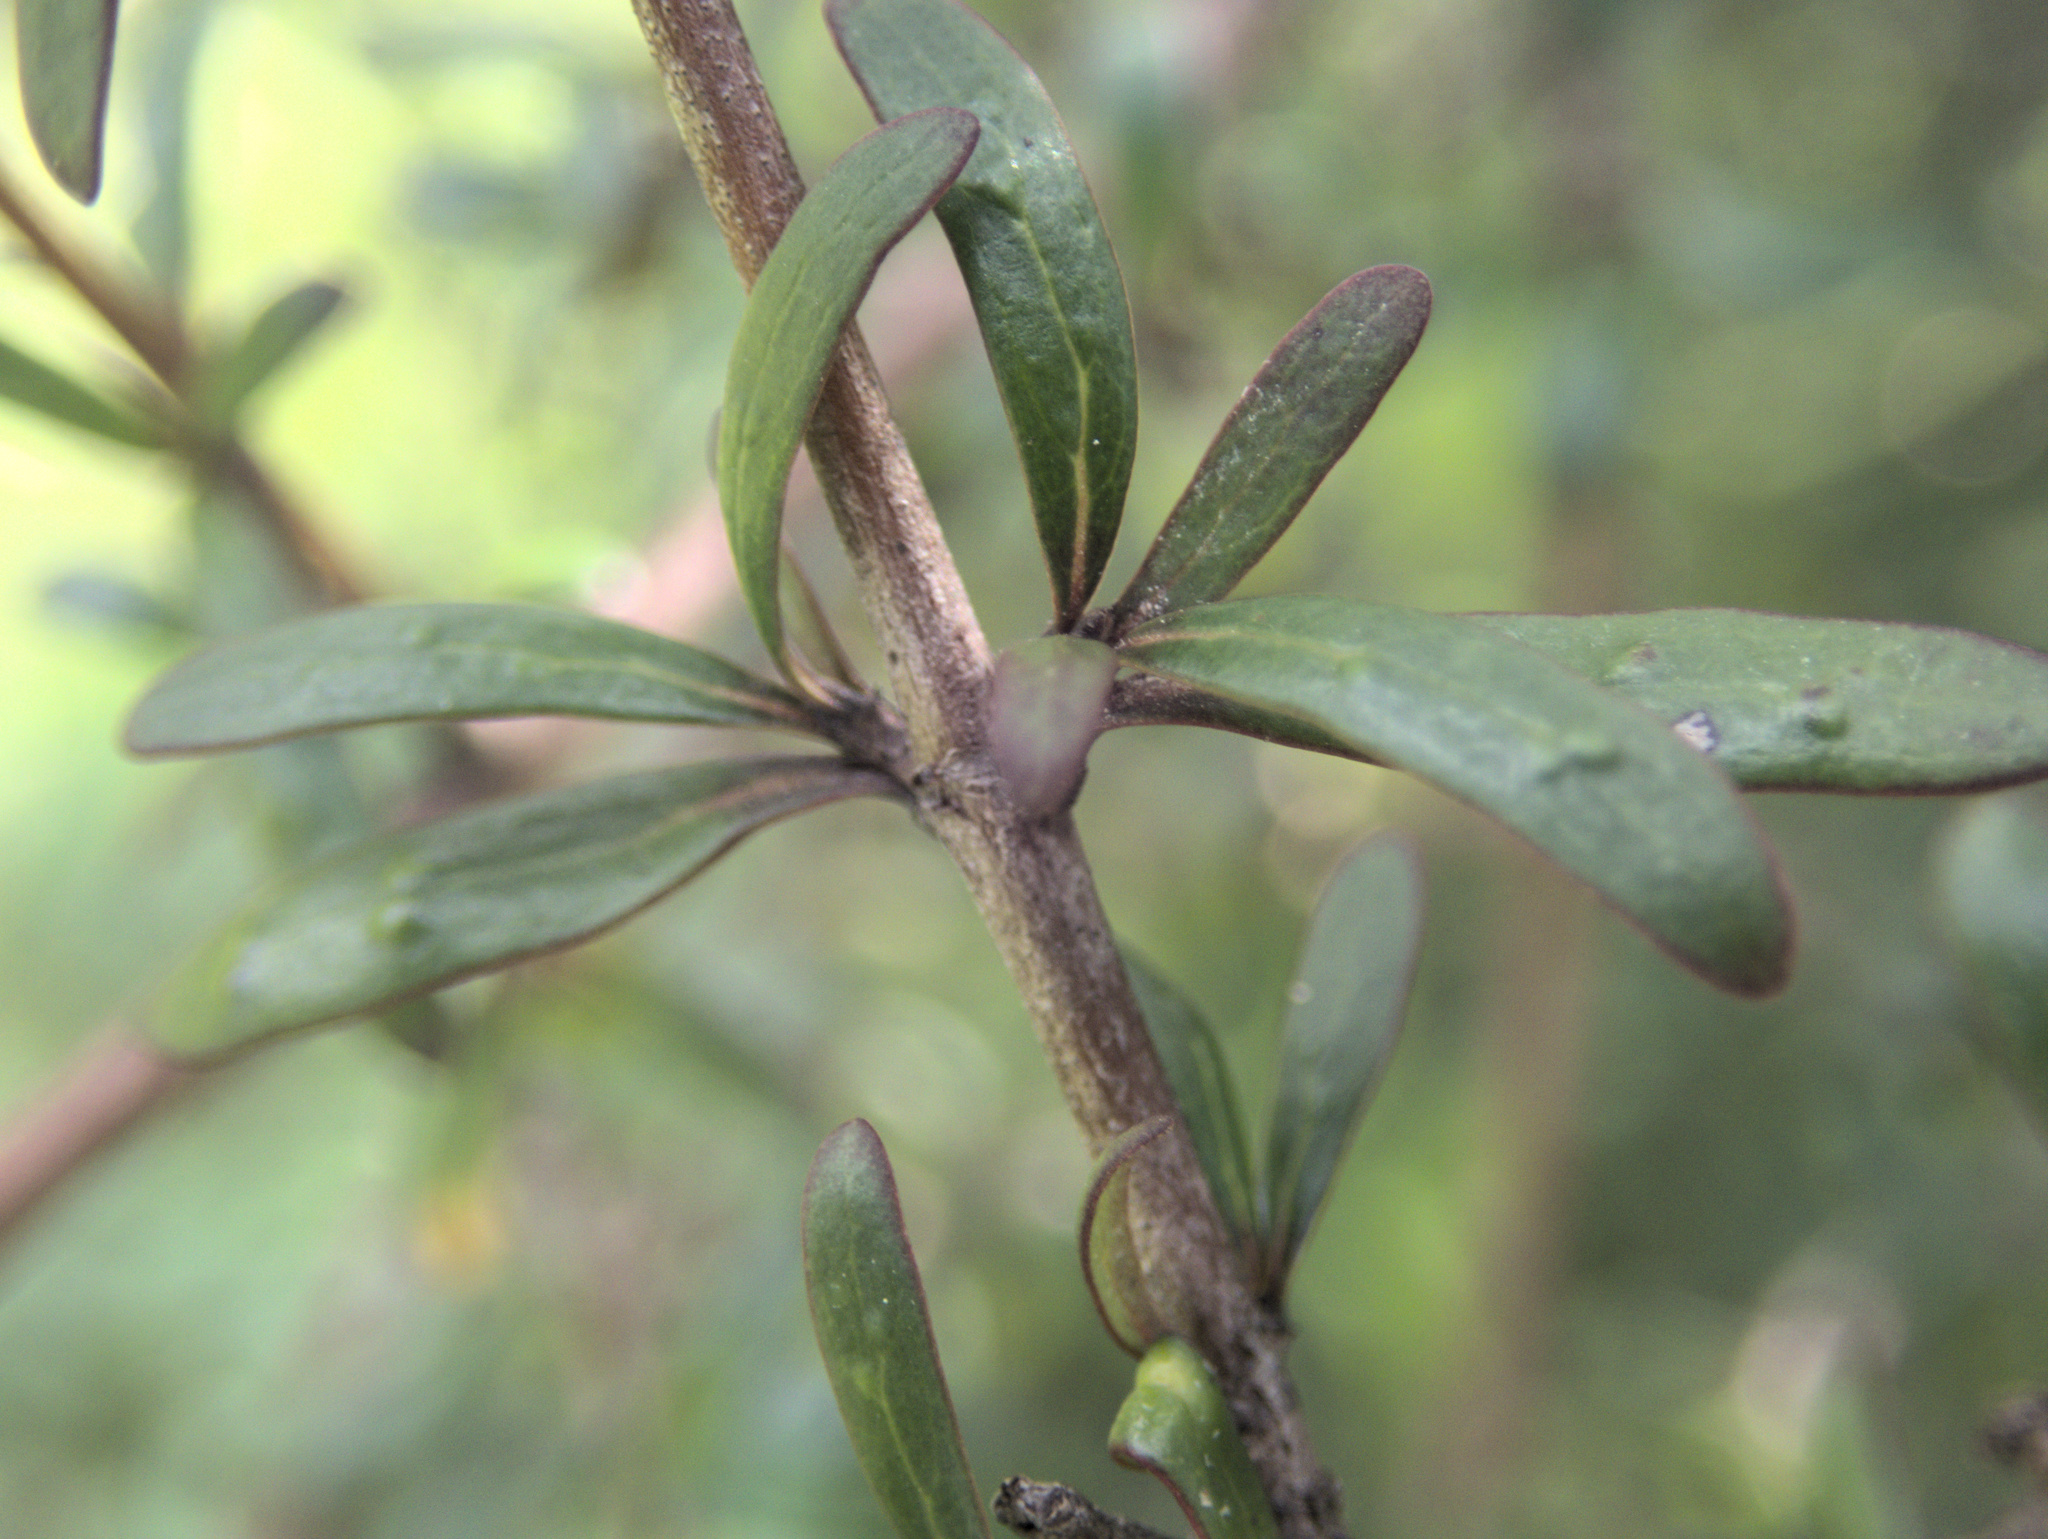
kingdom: Plantae
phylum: Tracheophyta
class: Magnoliopsida
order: Gentianales
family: Rubiaceae
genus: Coprosma
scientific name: Coprosma propinqua
